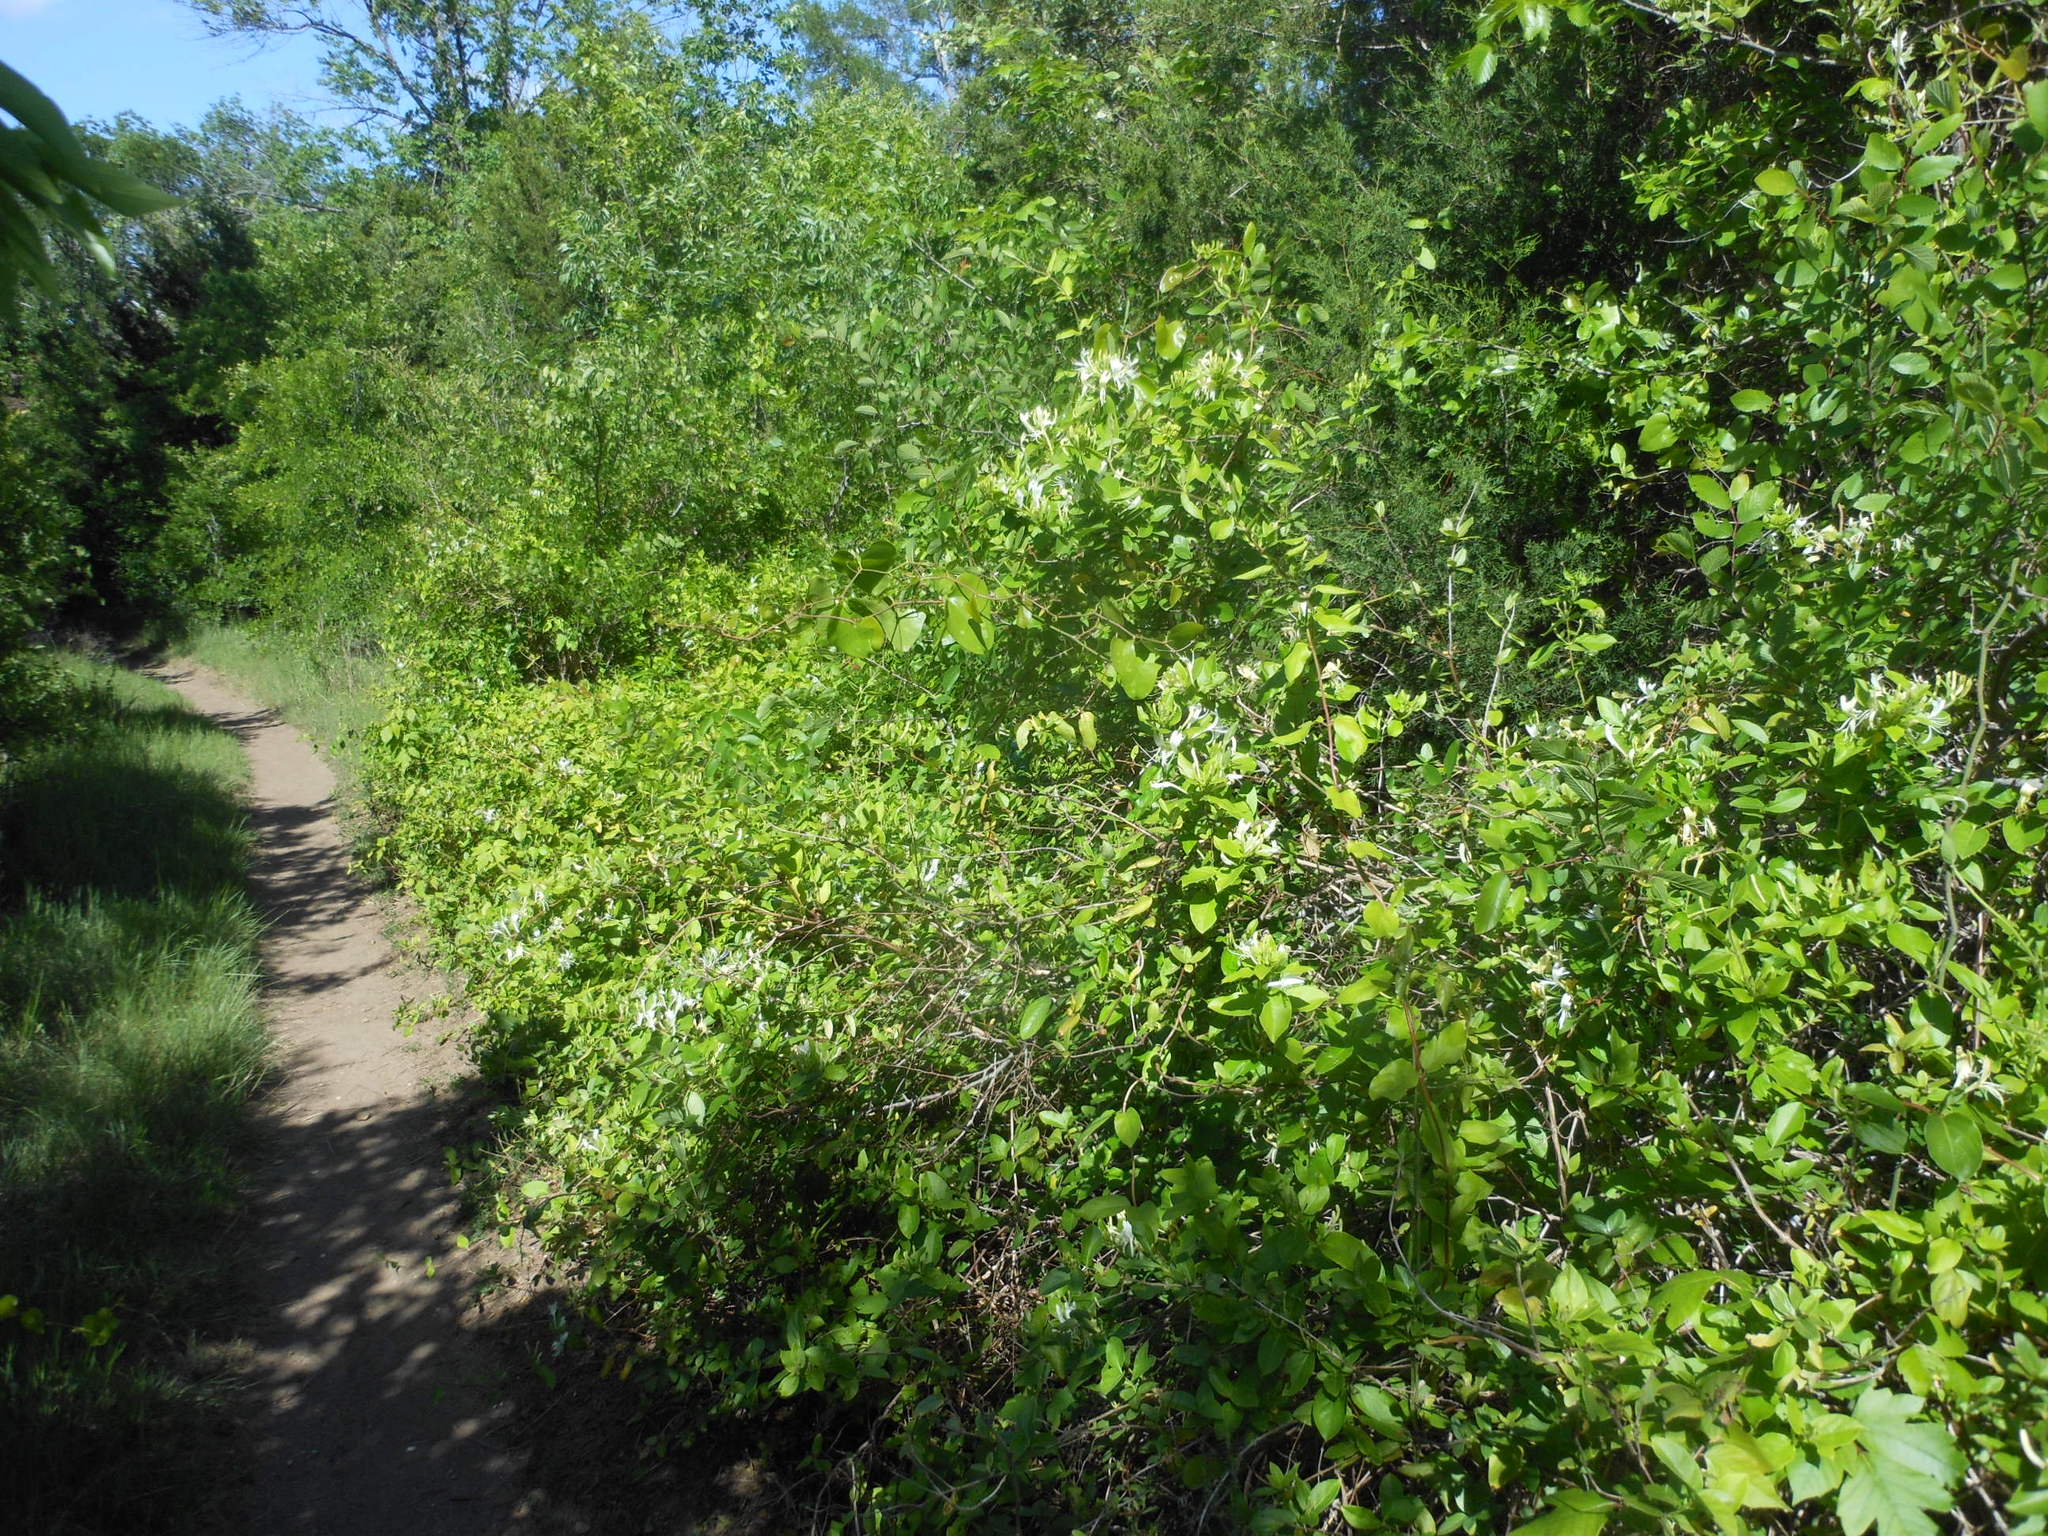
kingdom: Plantae
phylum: Tracheophyta
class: Magnoliopsida
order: Dipsacales
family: Caprifoliaceae
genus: Lonicera
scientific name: Lonicera japonica
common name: Japanese honeysuckle
